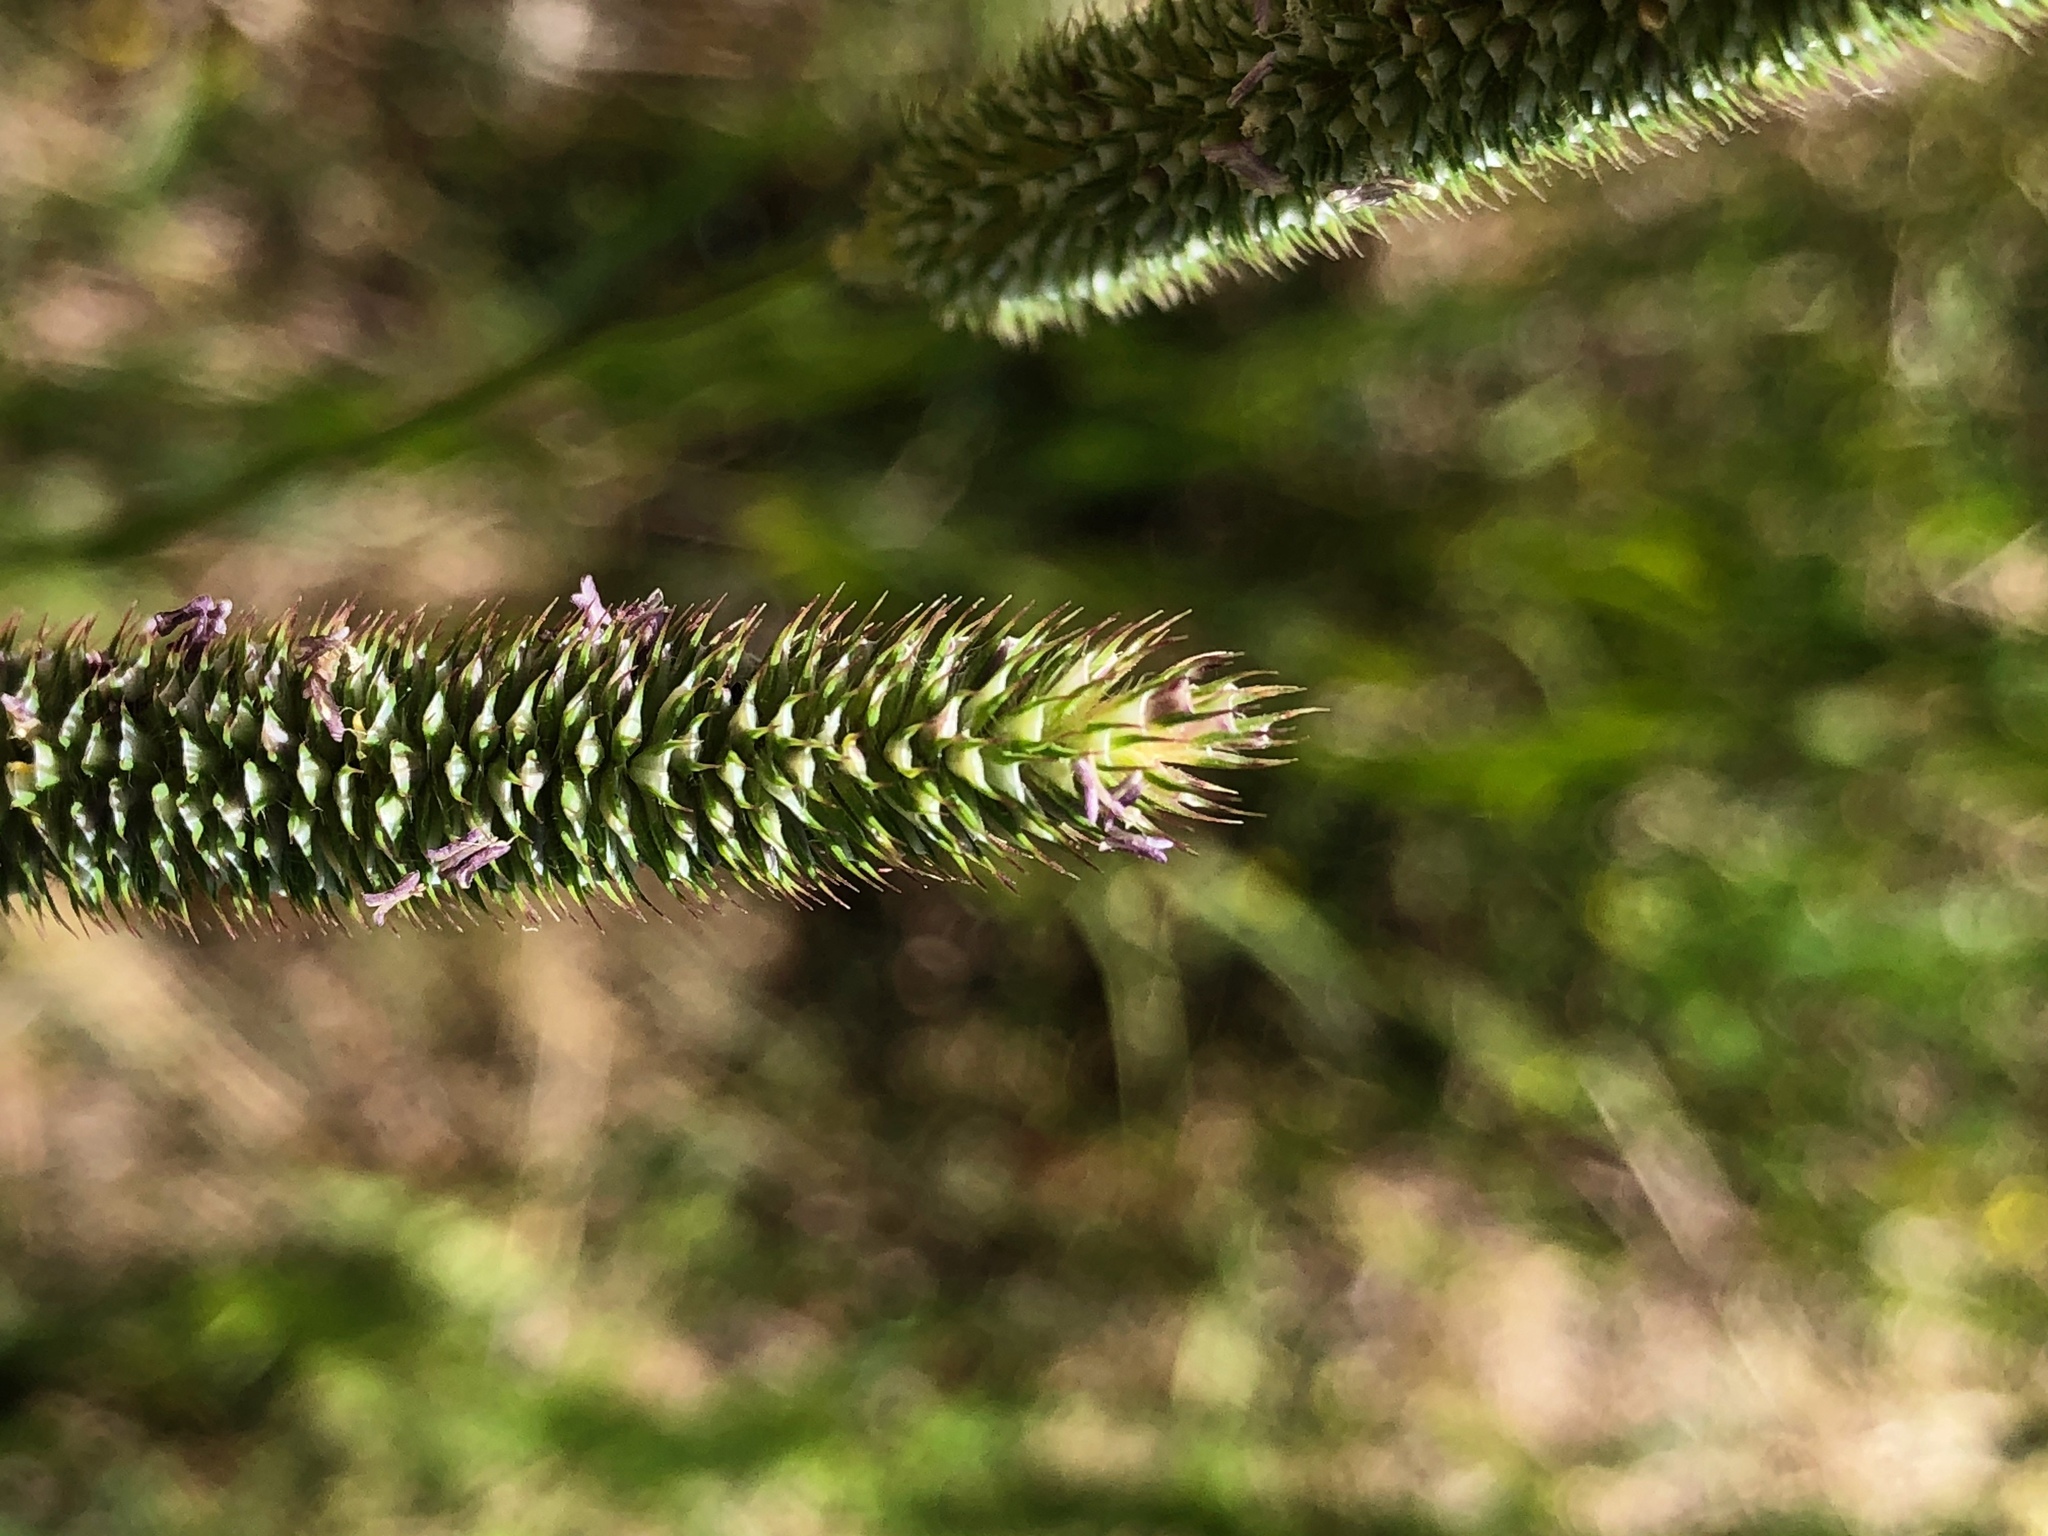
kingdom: Plantae
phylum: Tracheophyta
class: Liliopsida
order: Poales
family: Poaceae
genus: Phleum
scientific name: Phleum pratense
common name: Timothy grass
